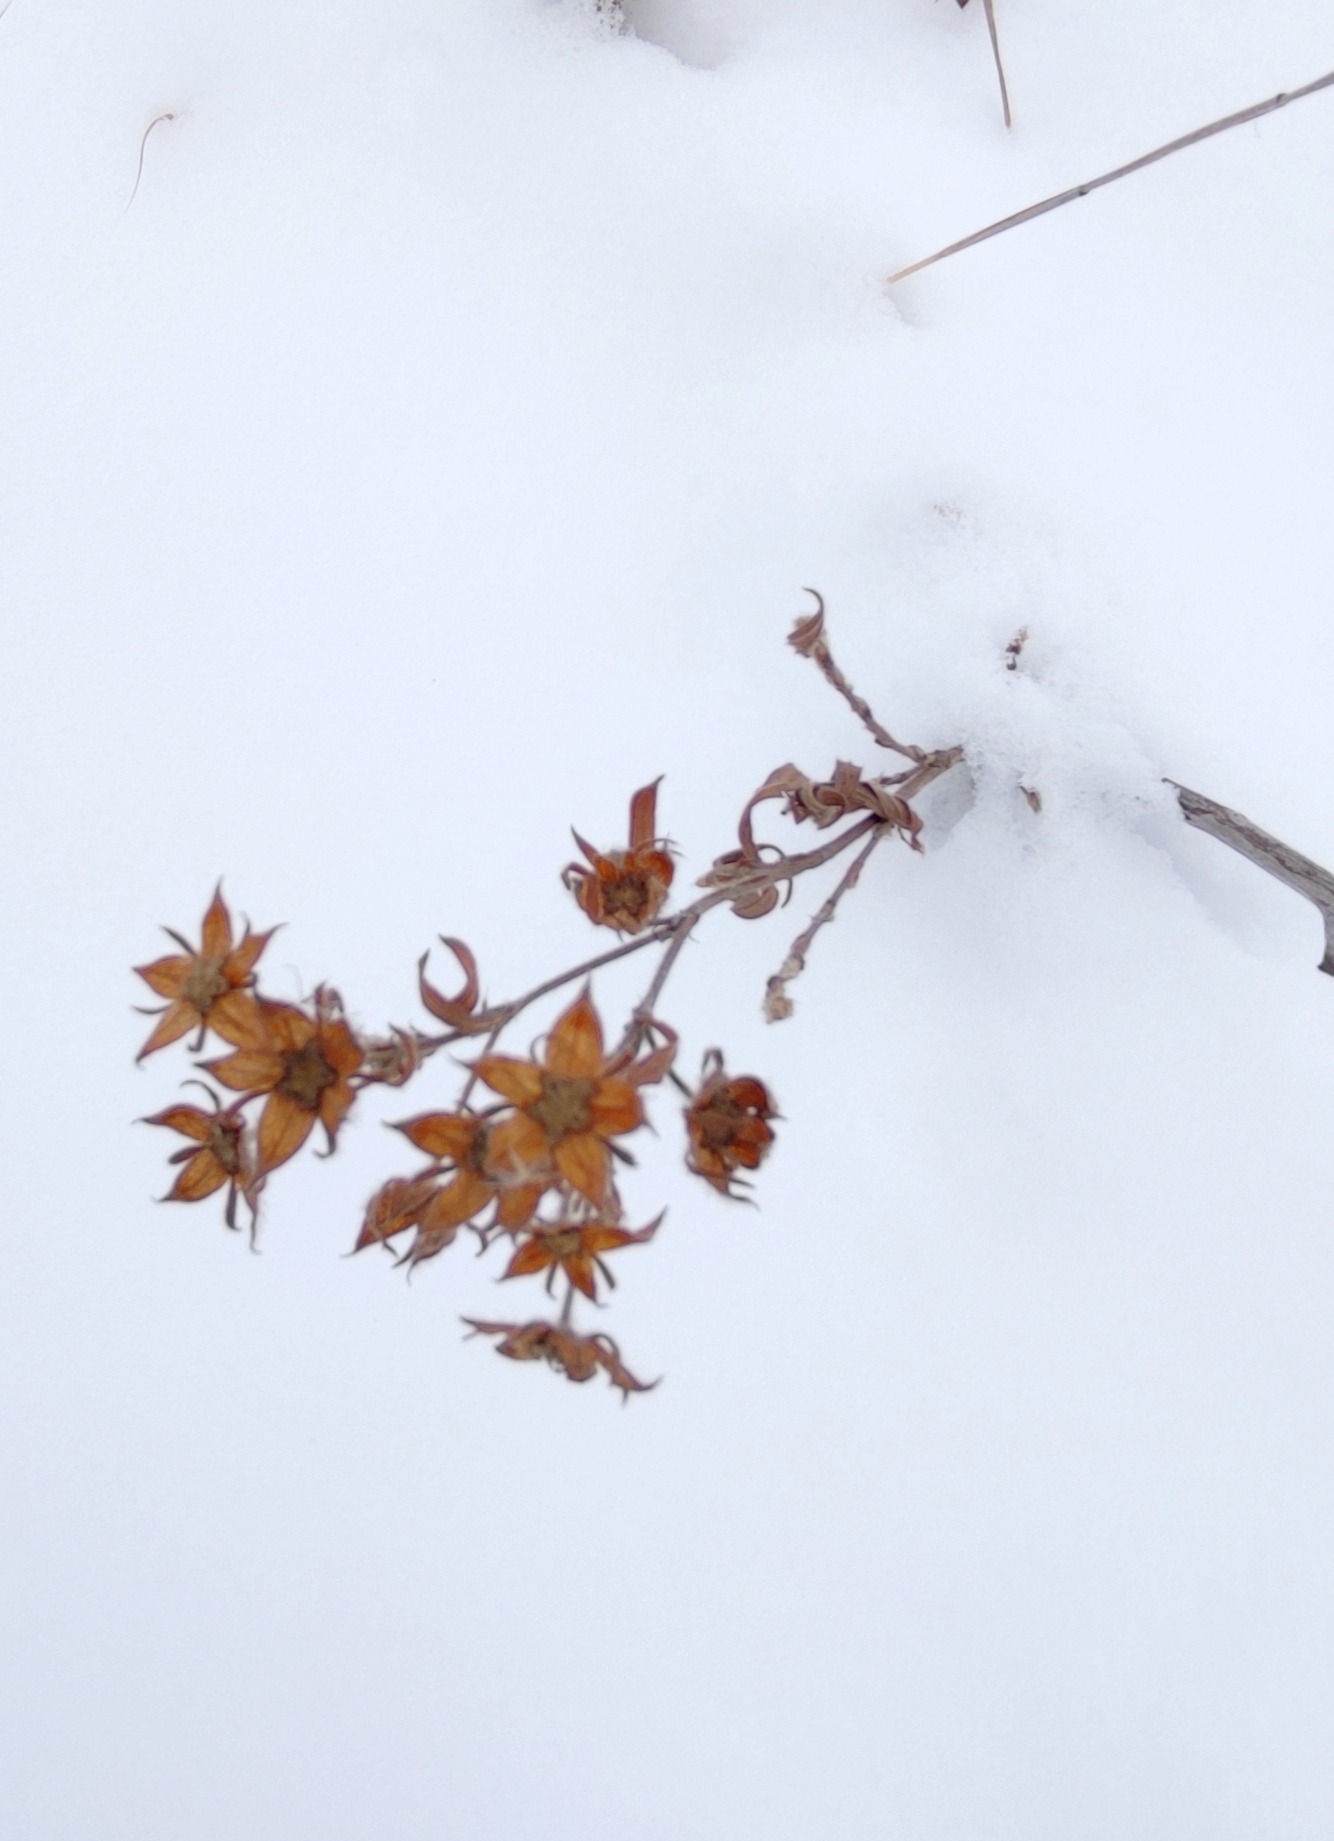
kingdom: Plantae
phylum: Tracheophyta
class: Magnoliopsida
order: Rosales
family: Rosaceae
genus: Dasiphora
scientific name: Dasiphora fruticosa
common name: Shrubby cinquefoil
